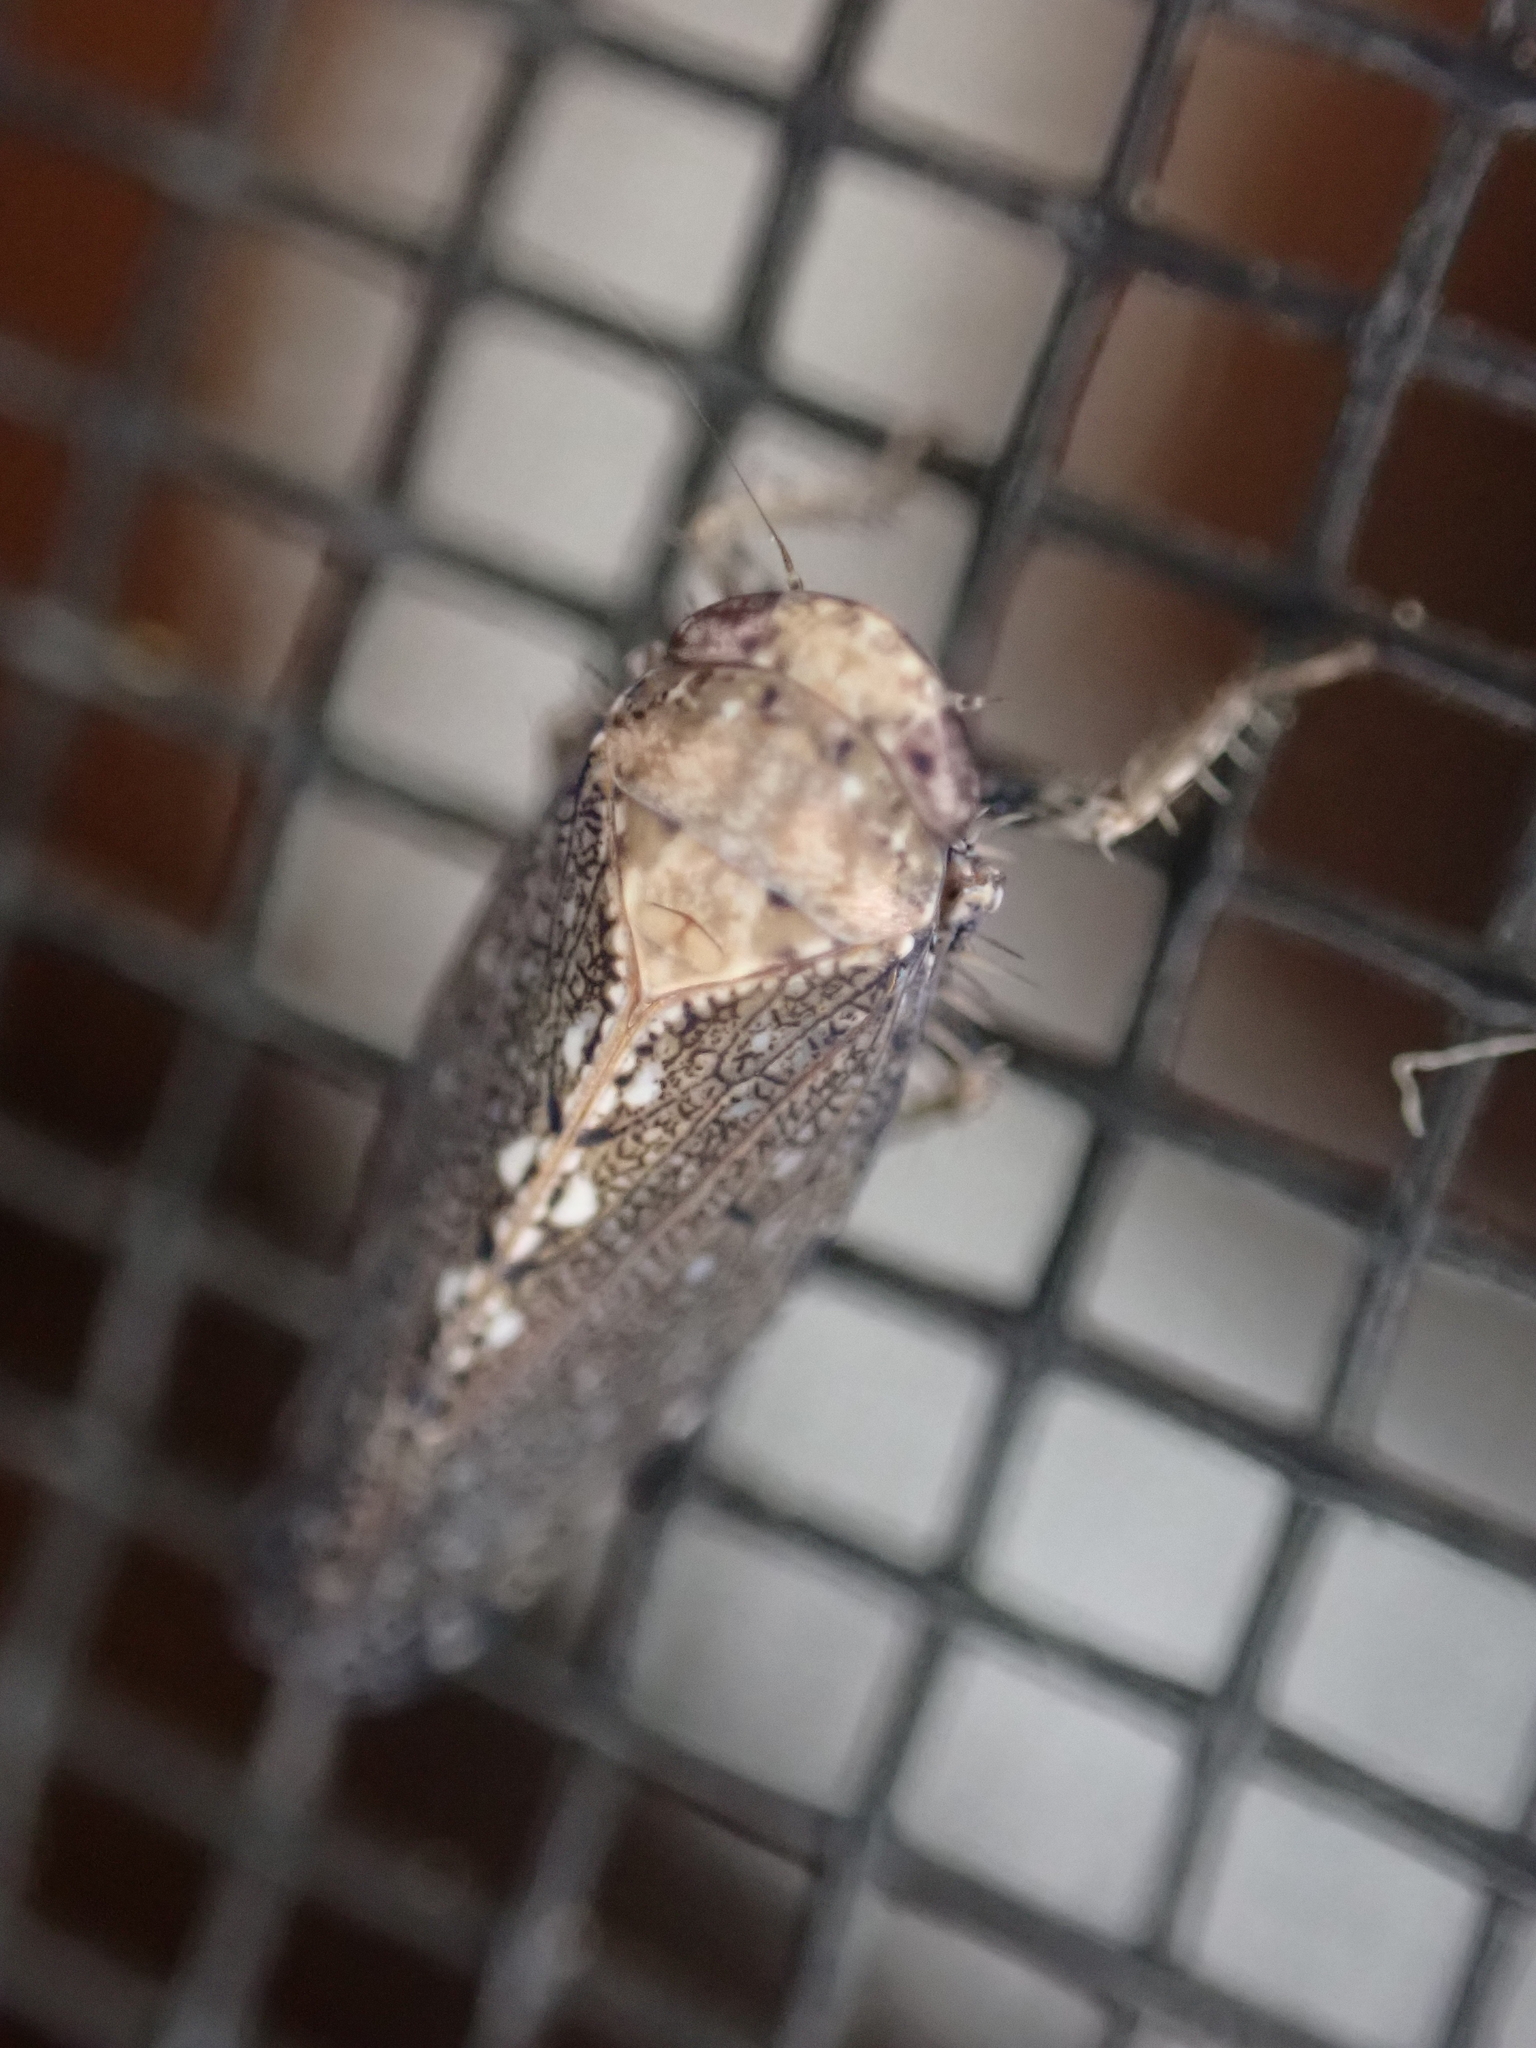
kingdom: Animalia
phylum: Arthropoda
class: Insecta
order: Hemiptera
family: Cicadellidae
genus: Excultanus
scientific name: Excultanus excultus
